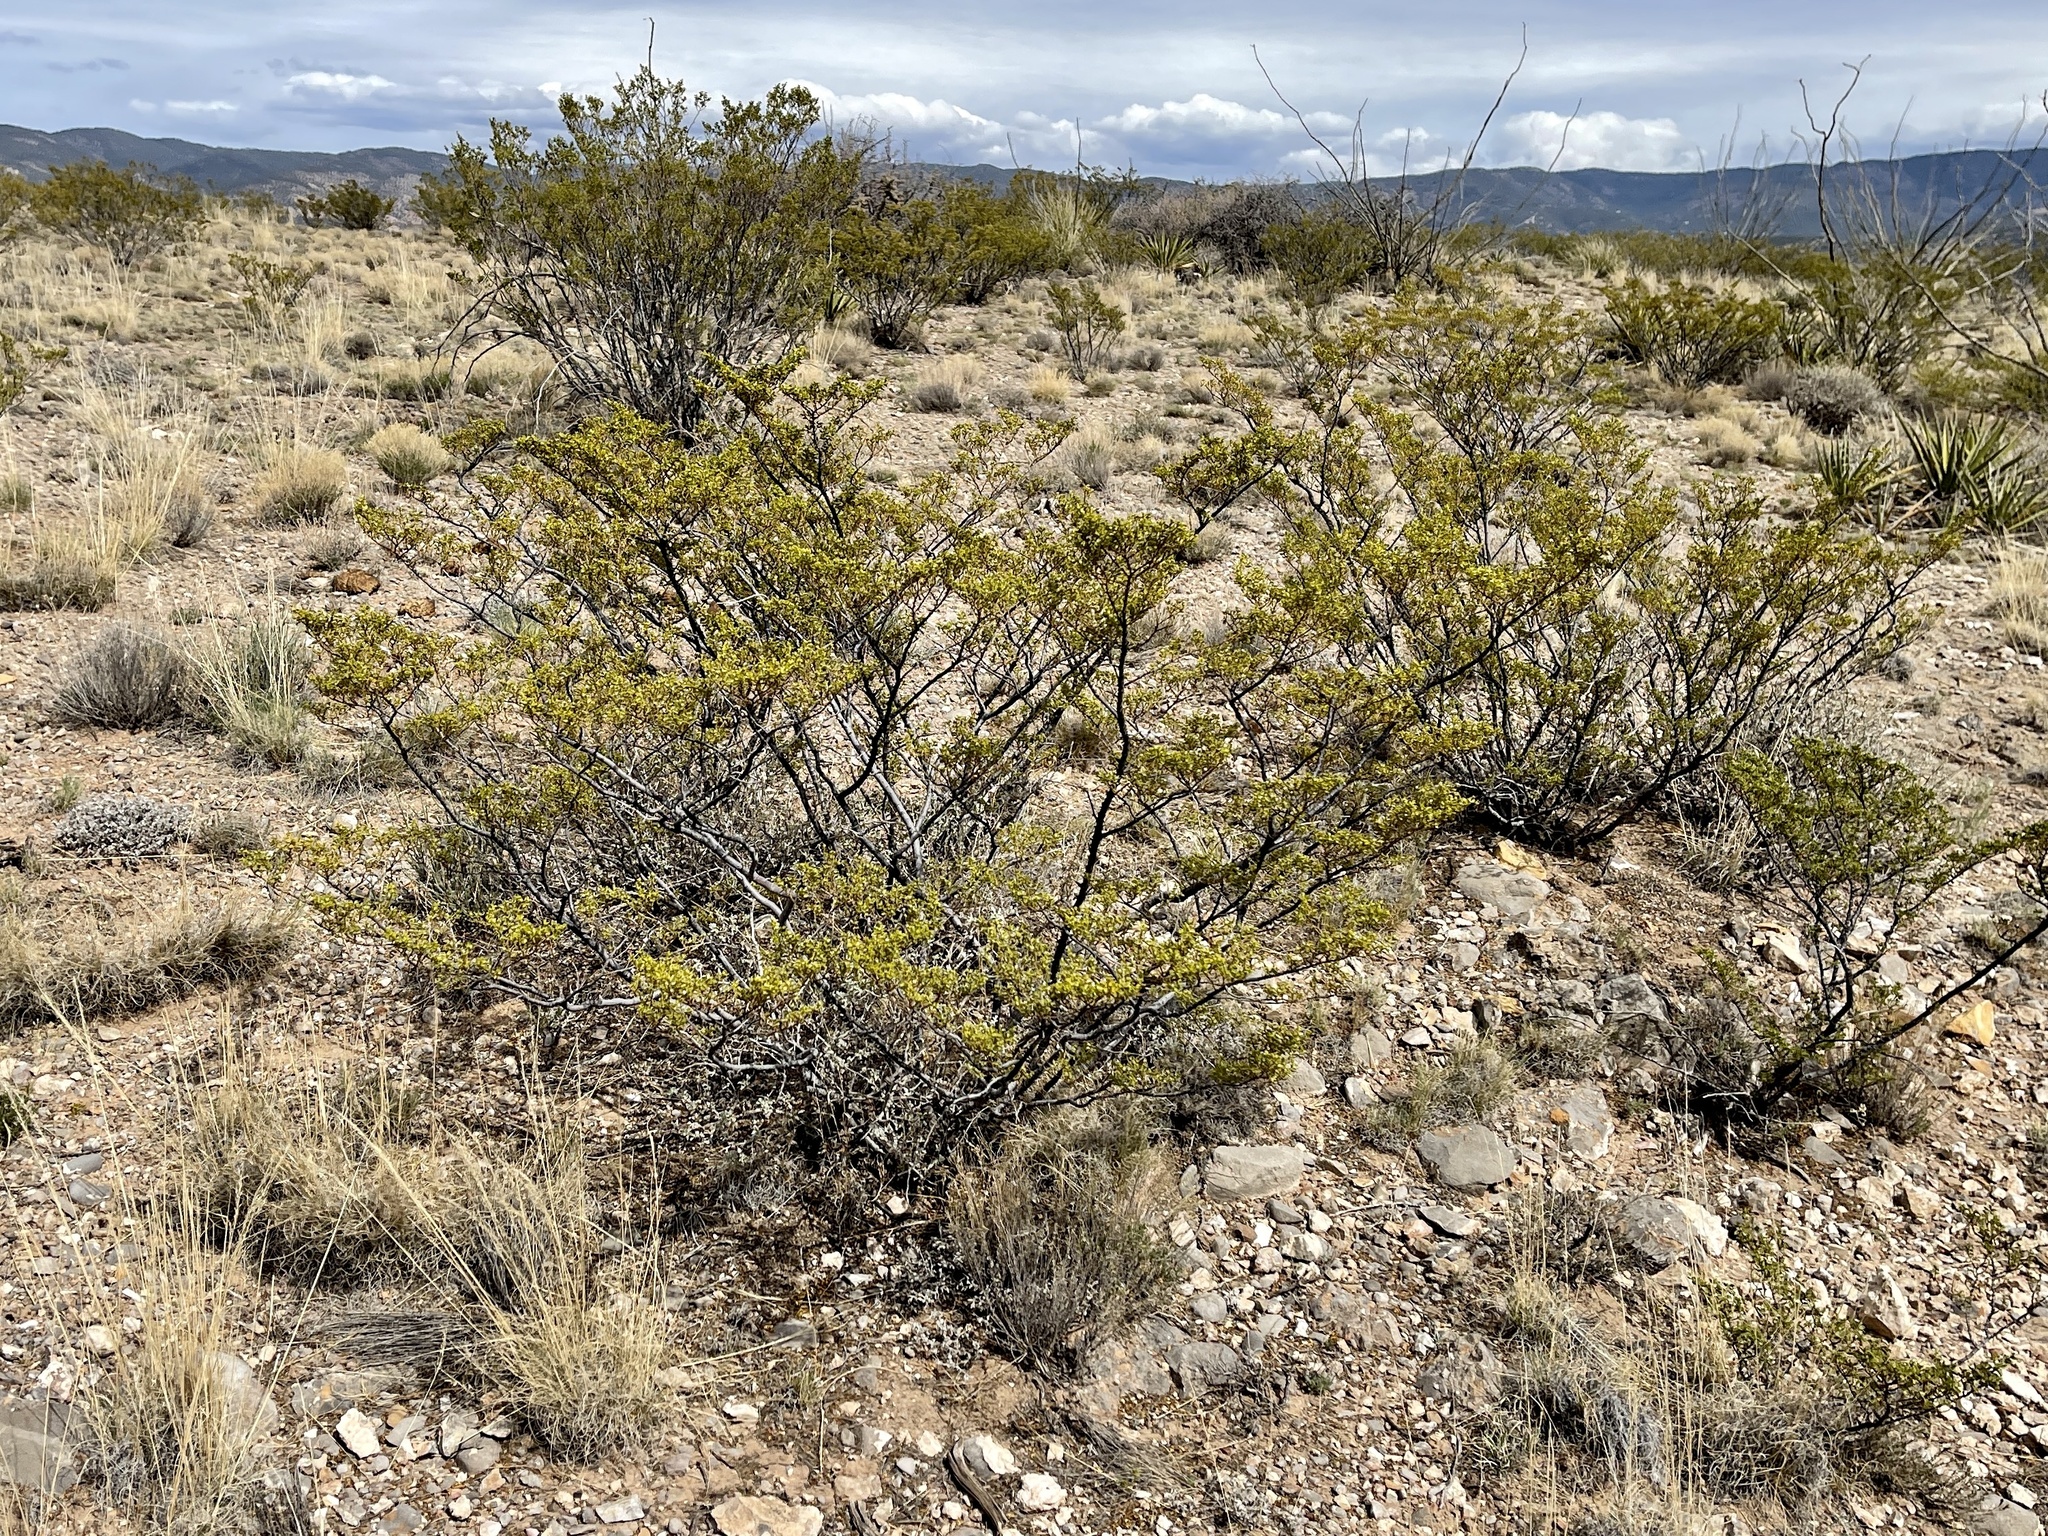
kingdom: Plantae
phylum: Tracheophyta
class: Magnoliopsida
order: Zygophyllales
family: Zygophyllaceae
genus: Larrea
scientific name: Larrea tridentata
